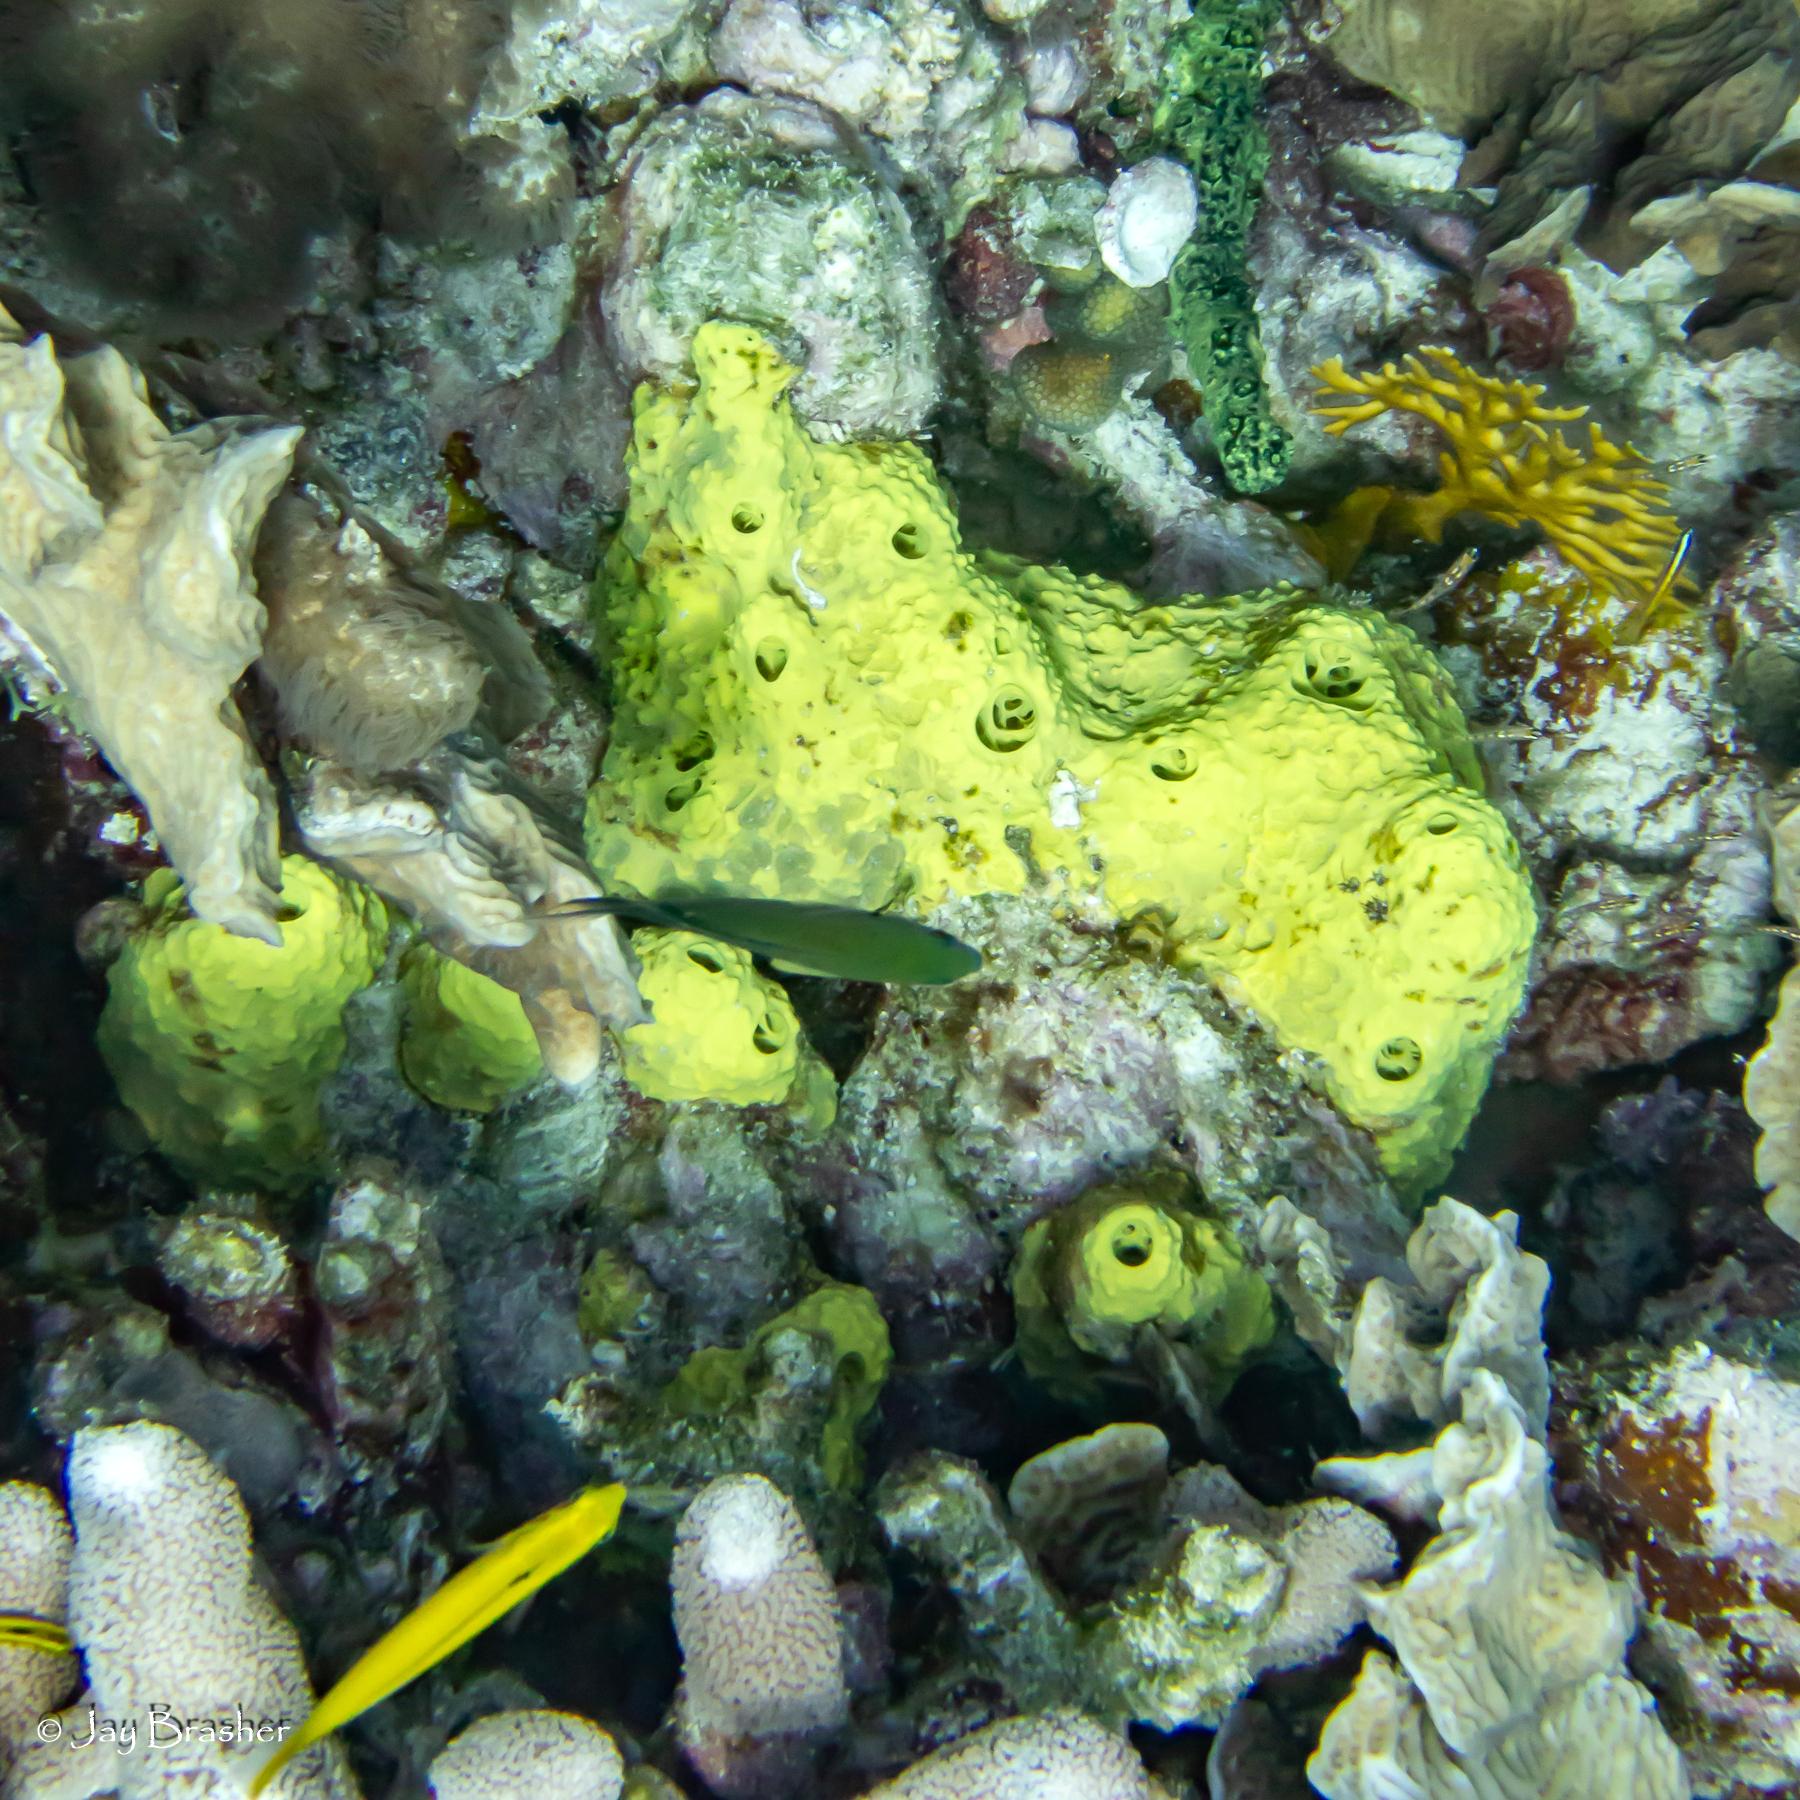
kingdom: Animalia
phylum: Porifera
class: Demospongiae
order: Verongiida
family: Aplysinidae
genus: Aiolochroia
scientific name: Aiolochroia crassa
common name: Branching tube sponge
